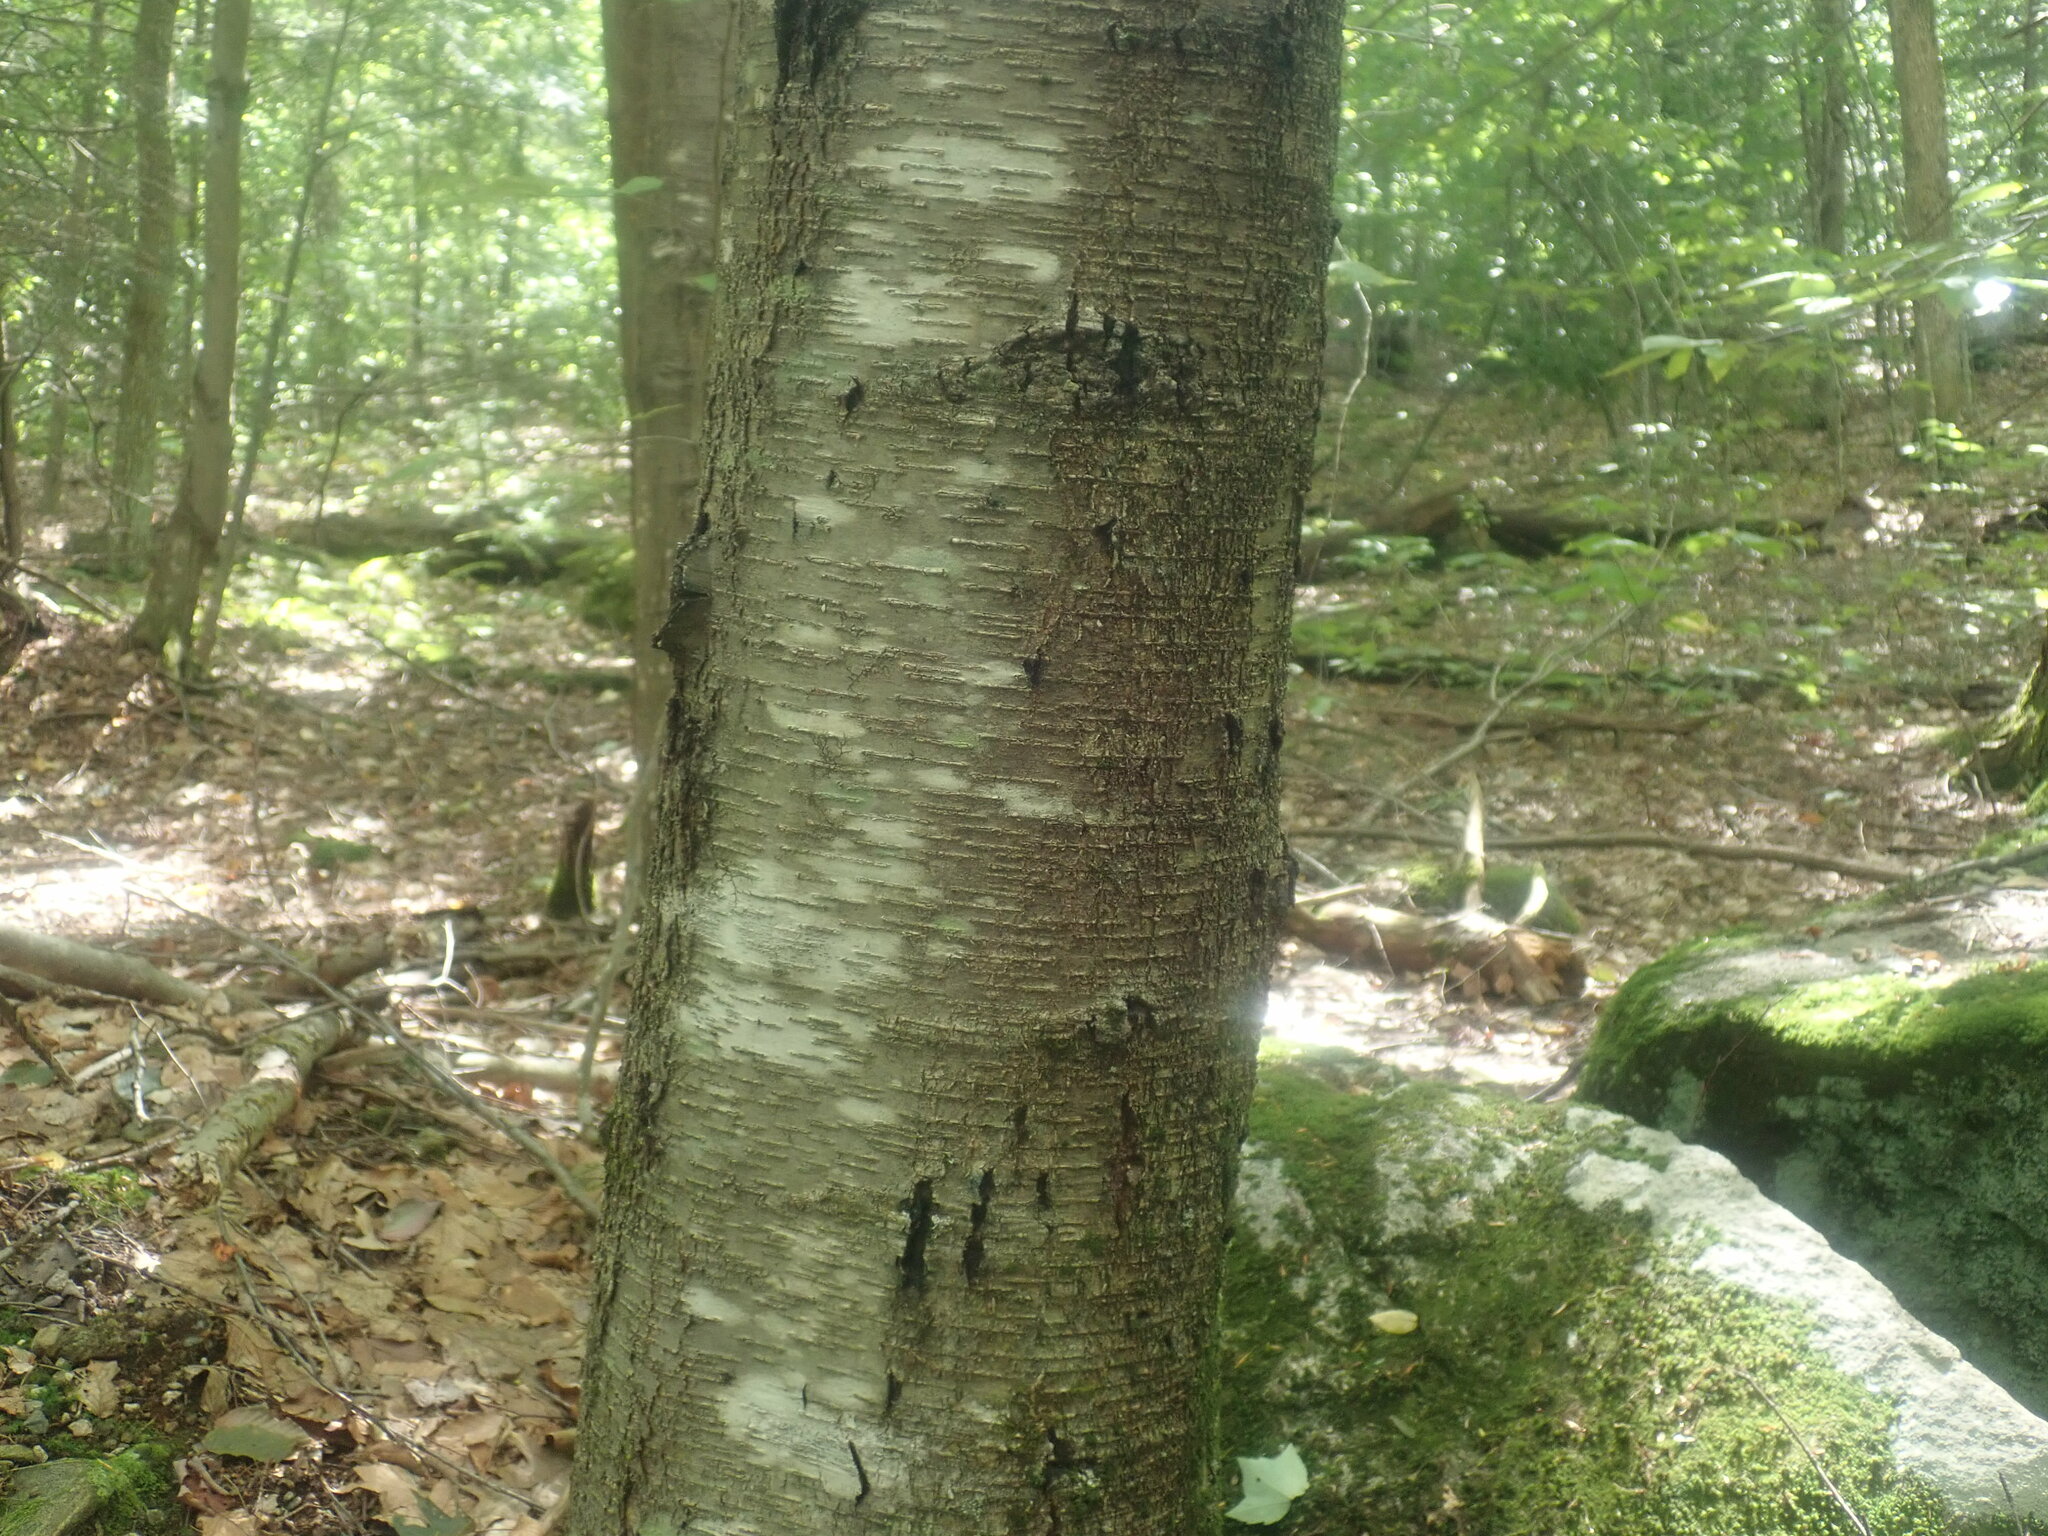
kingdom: Plantae
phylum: Tracheophyta
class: Magnoliopsida
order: Fagales
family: Betulaceae
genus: Betula
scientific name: Betula lenta
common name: Black birch
